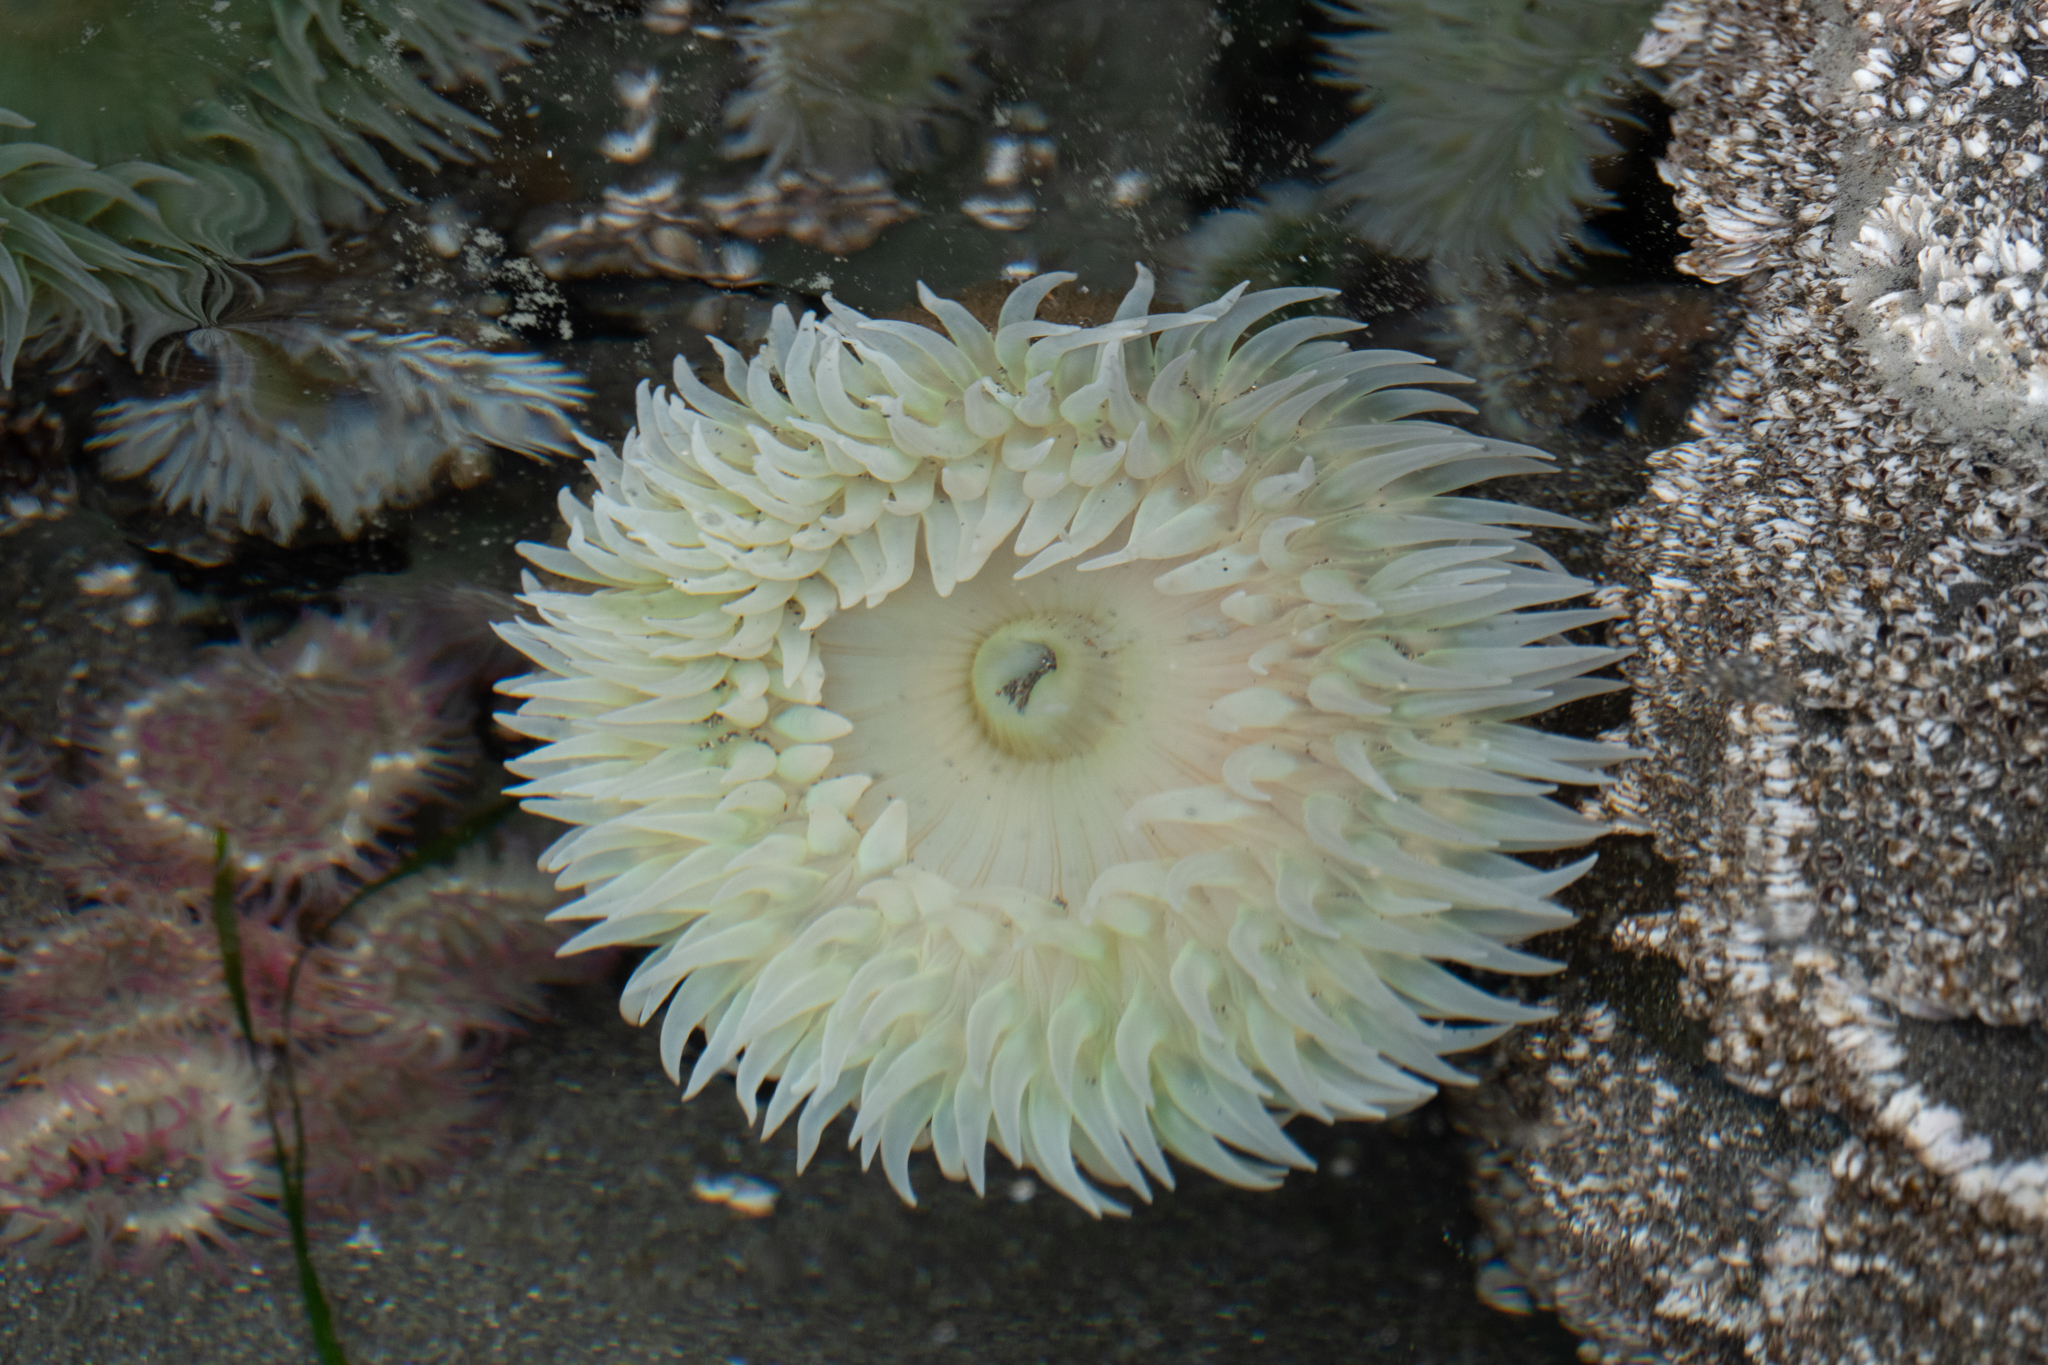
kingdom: Animalia
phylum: Cnidaria
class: Anthozoa
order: Actiniaria
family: Actiniidae
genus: Anthopleura
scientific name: Anthopleura xanthogrammica
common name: Giant green anemone
